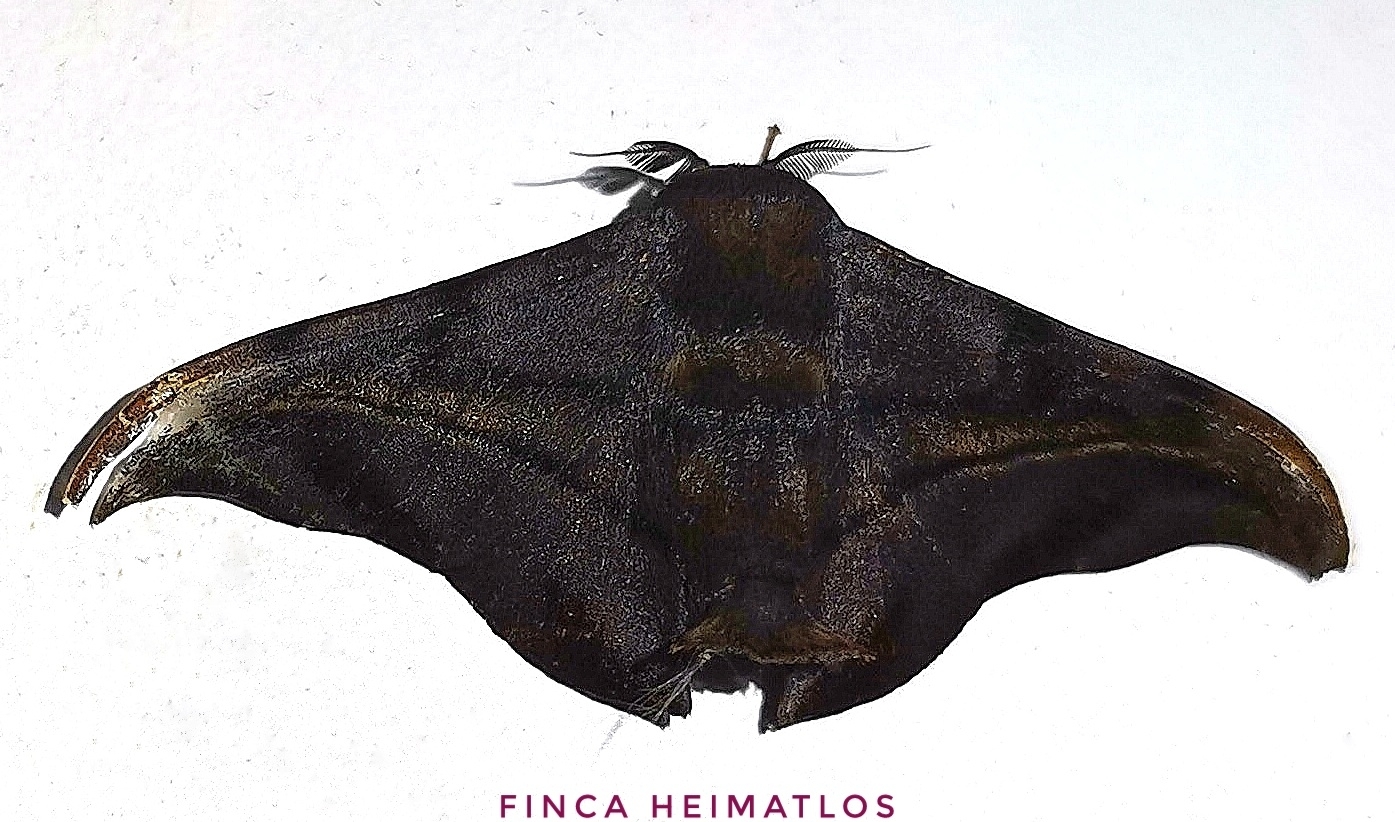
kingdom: Animalia
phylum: Arthropoda
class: Insecta
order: Lepidoptera
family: Mimallonidae
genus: Thaelia
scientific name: Thaelia subrubiginosa
